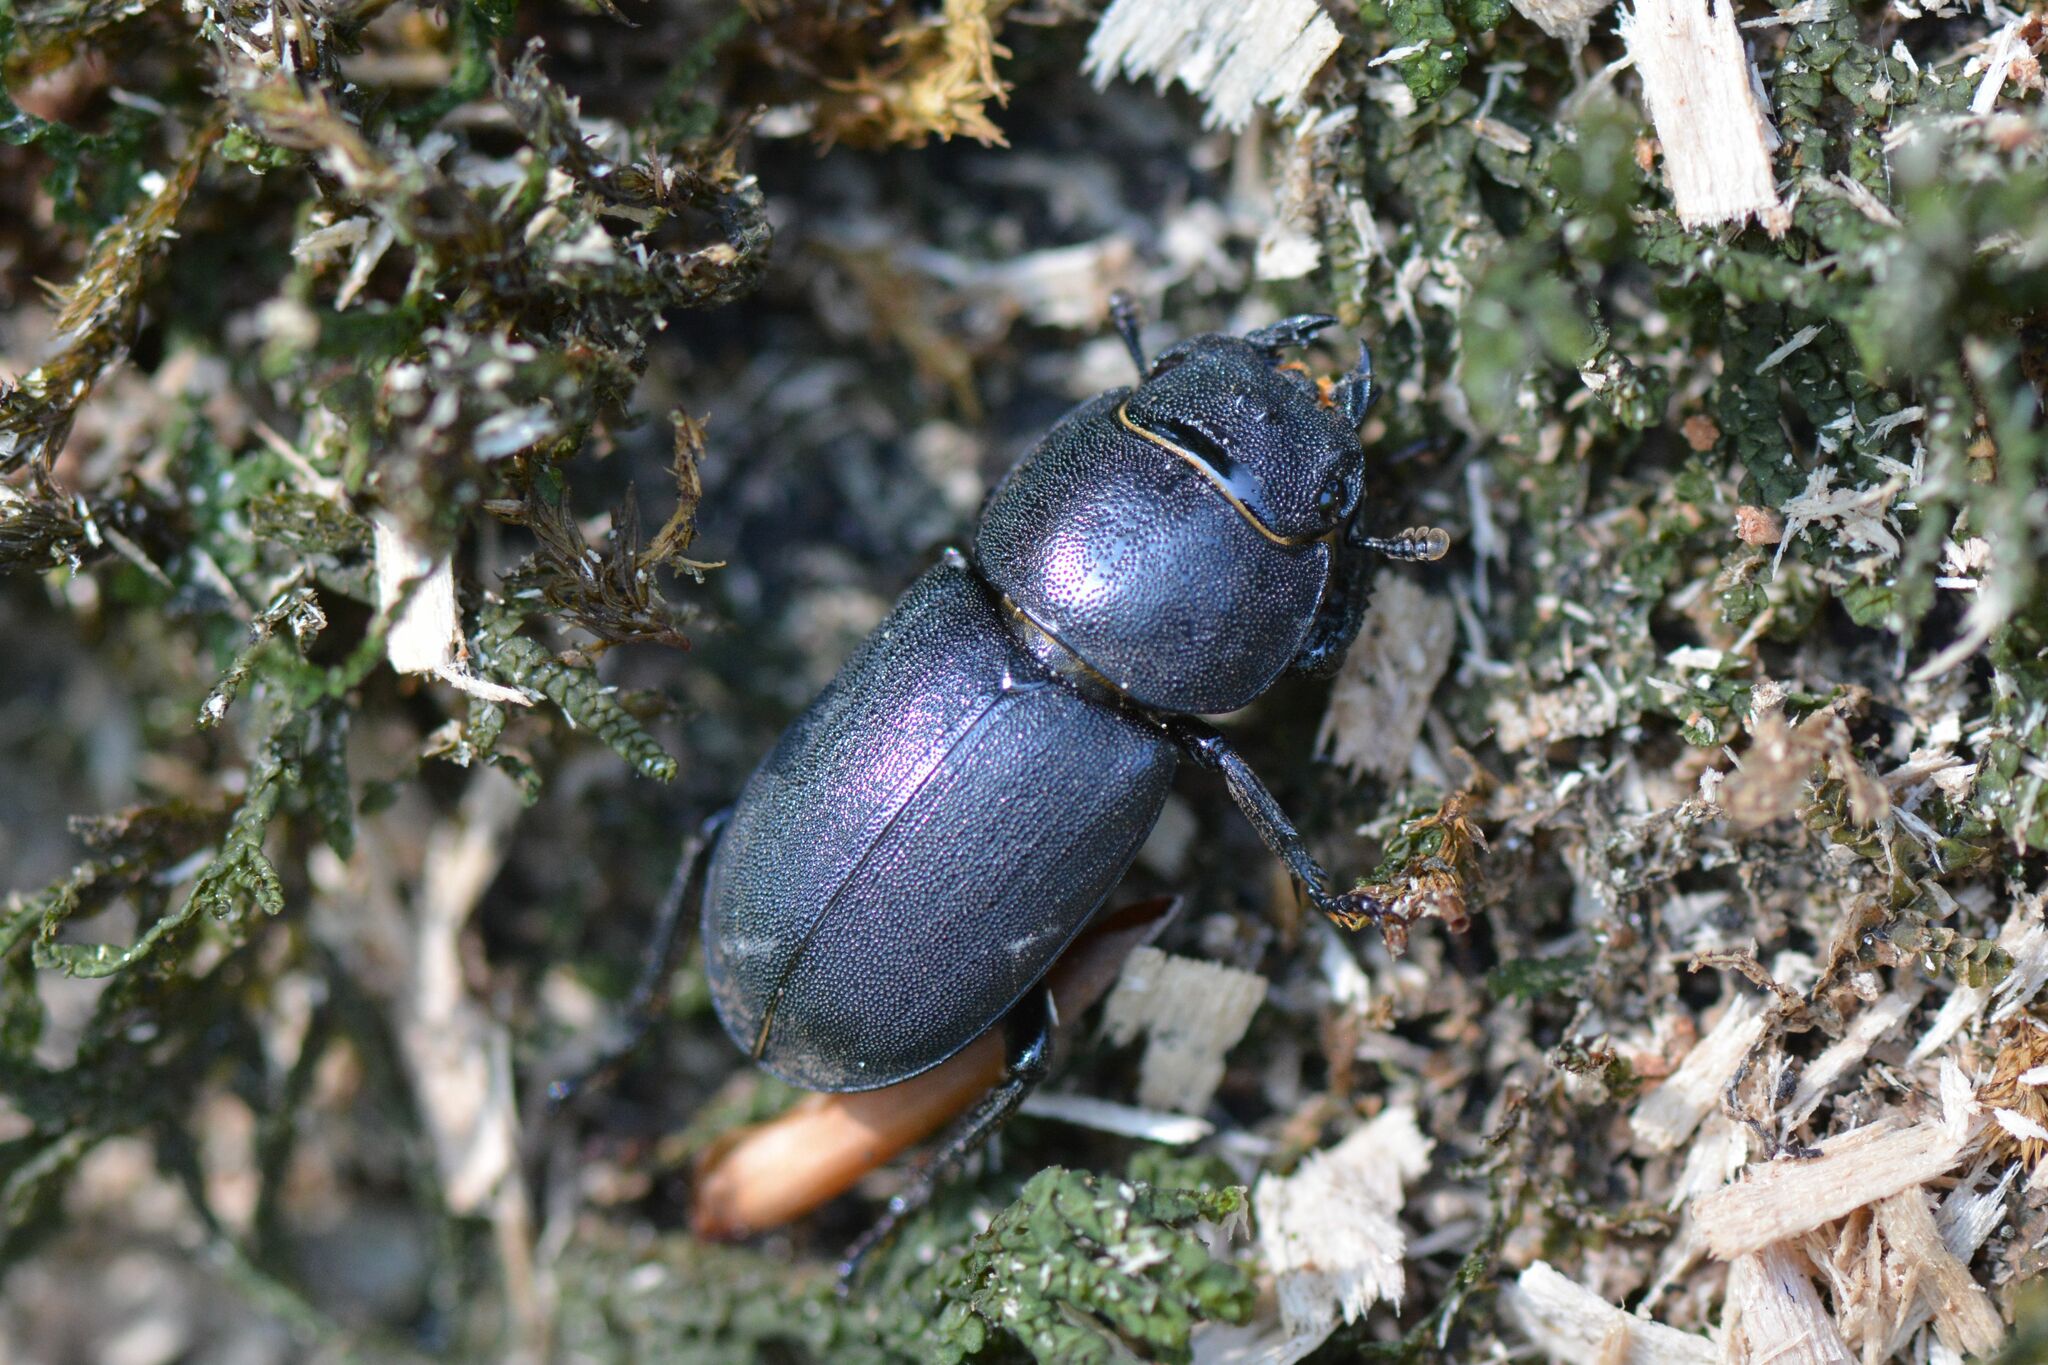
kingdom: Animalia
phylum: Arthropoda
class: Insecta
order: Coleoptera
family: Lucanidae
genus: Dorcus
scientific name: Dorcus parallelipipedus
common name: Lesser stag beetle
